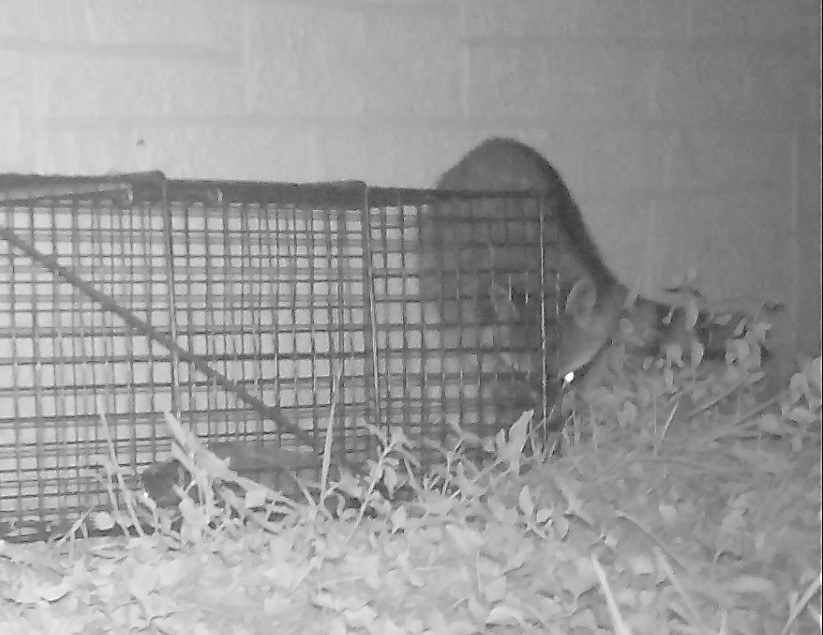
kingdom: Animalia
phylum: Chordata
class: Mammalia
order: Carnivora
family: Procyonidae
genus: Procyon
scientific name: Procyon lotor
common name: Raccoon
